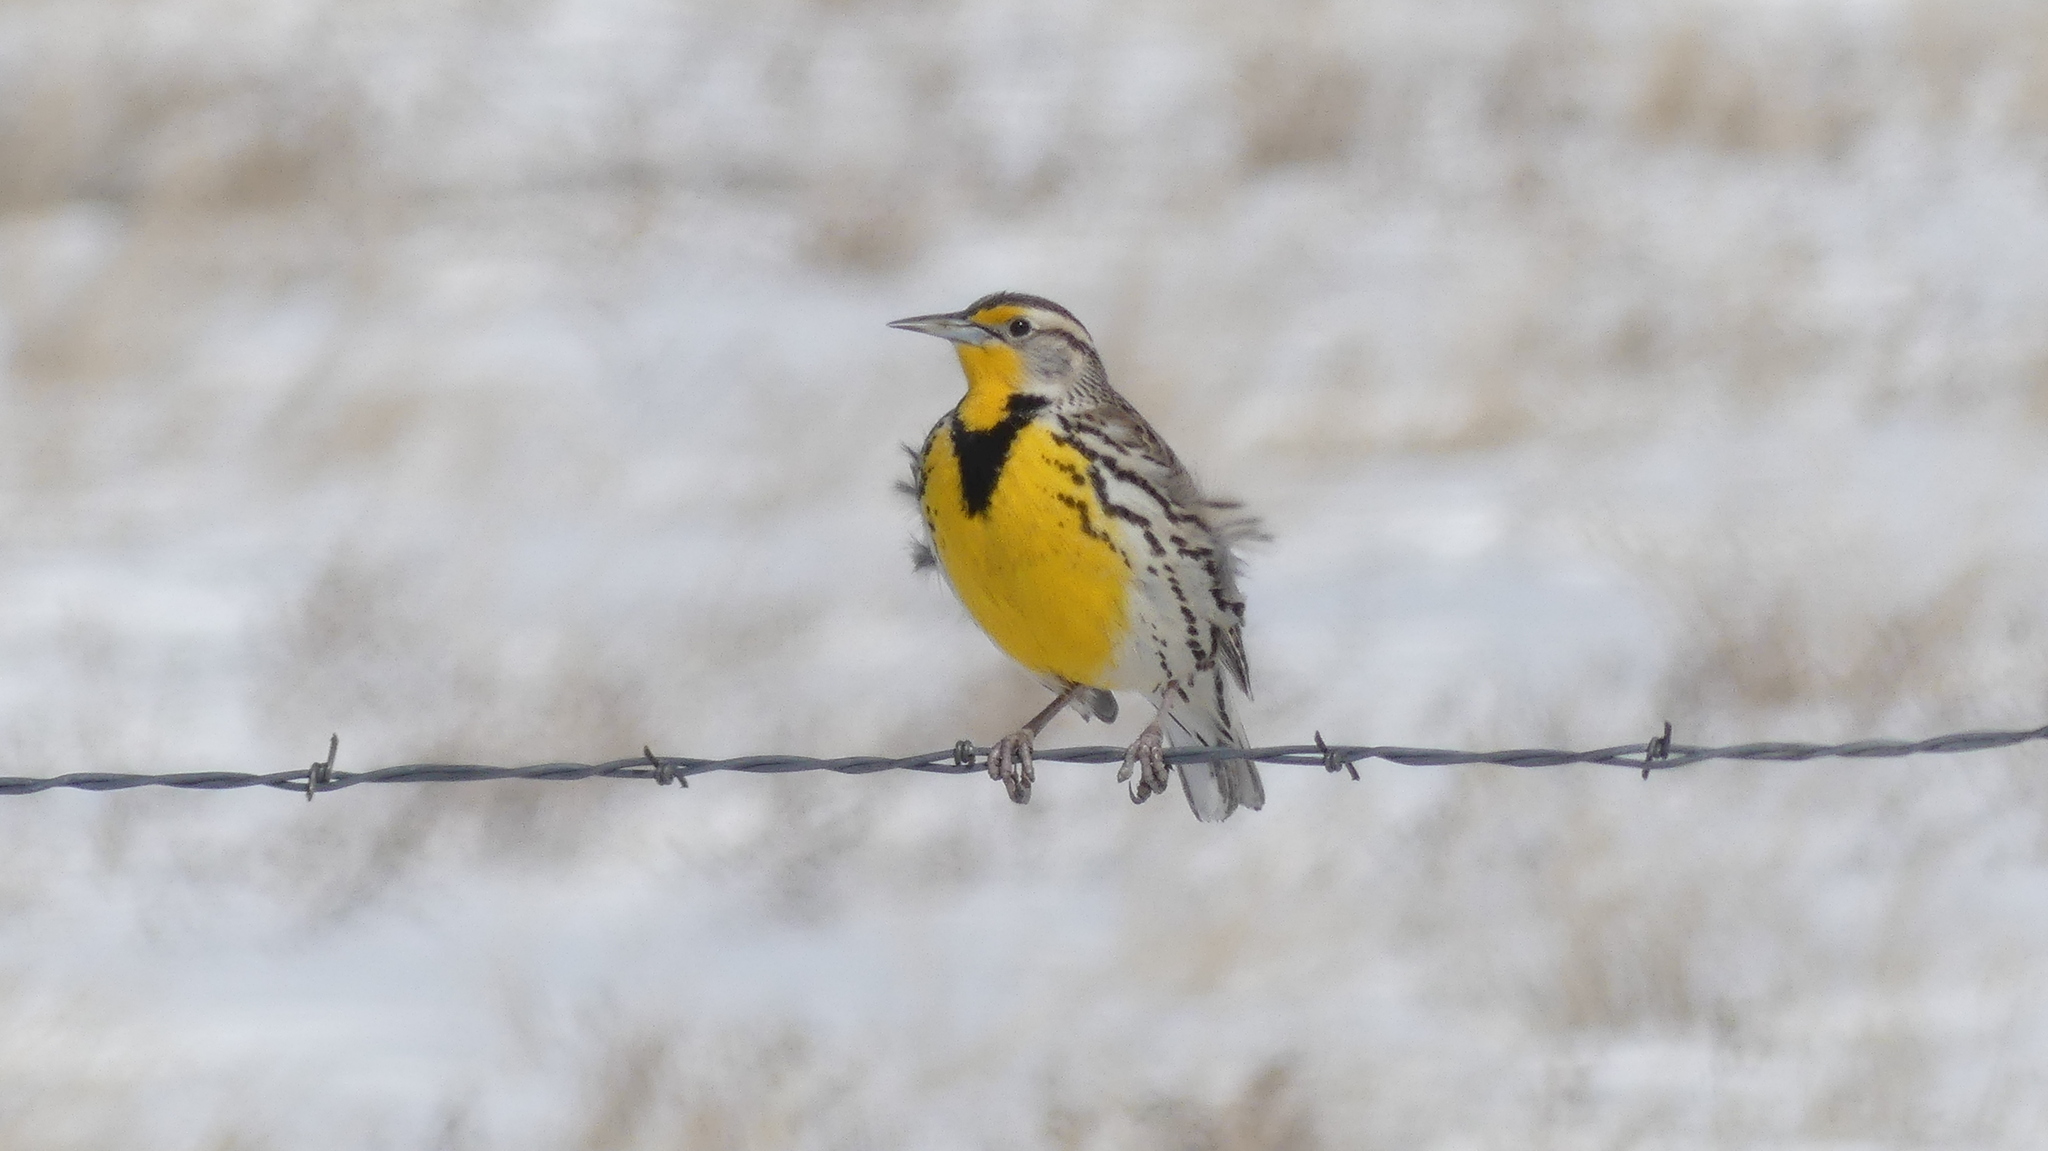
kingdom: Animalia
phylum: Chordata
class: Aves
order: Passeriformes
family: Icteridae
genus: Sturnella
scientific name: Sturnella neglecta
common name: Western meadowlark
